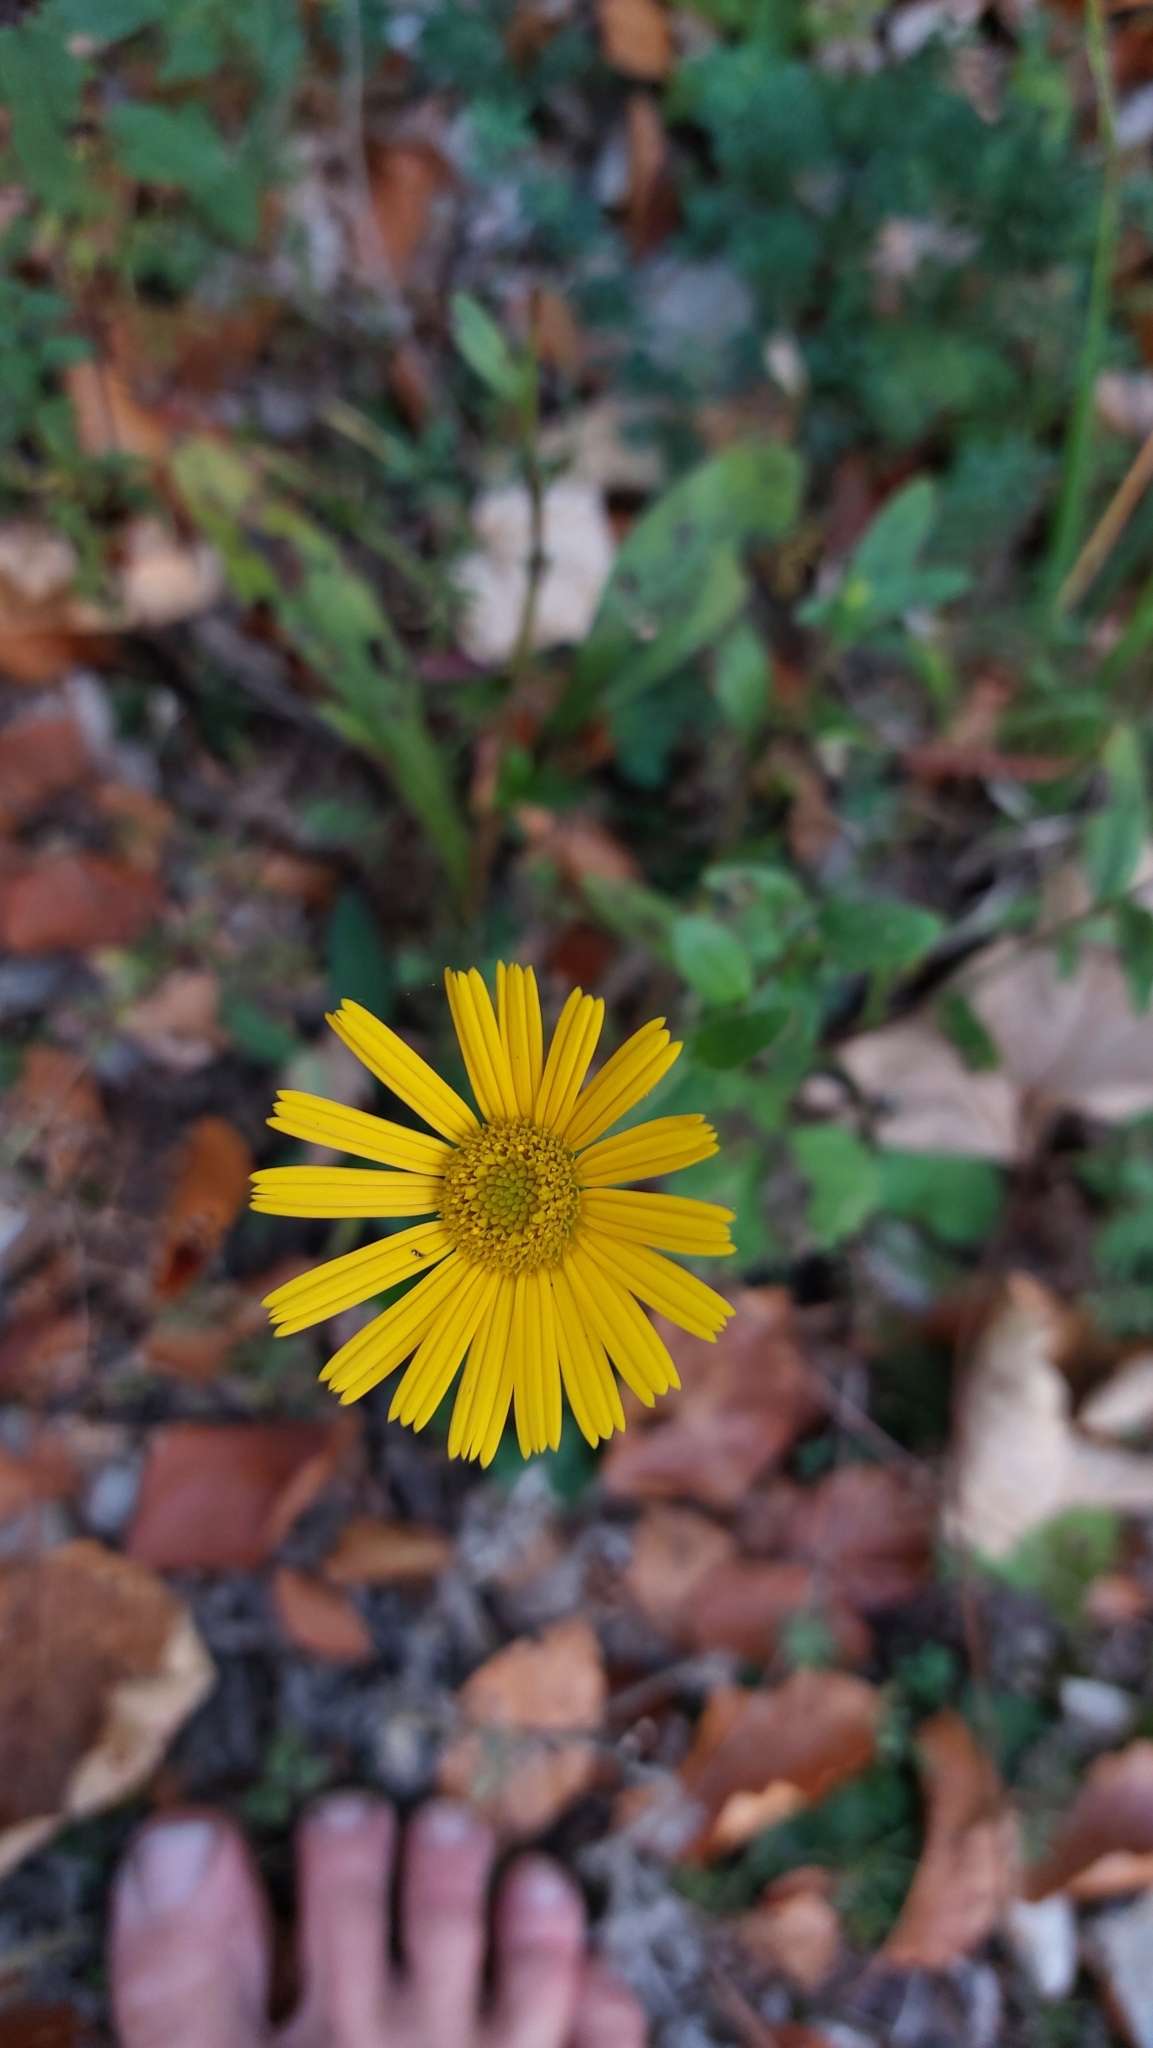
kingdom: Plantae
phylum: Tracheophyta
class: Magnoliopsida
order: Asterales
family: Asteraceae
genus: Buphthalmum
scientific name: Buphthalmum salicifolium
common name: Willow-leaved yellow-oxeye
